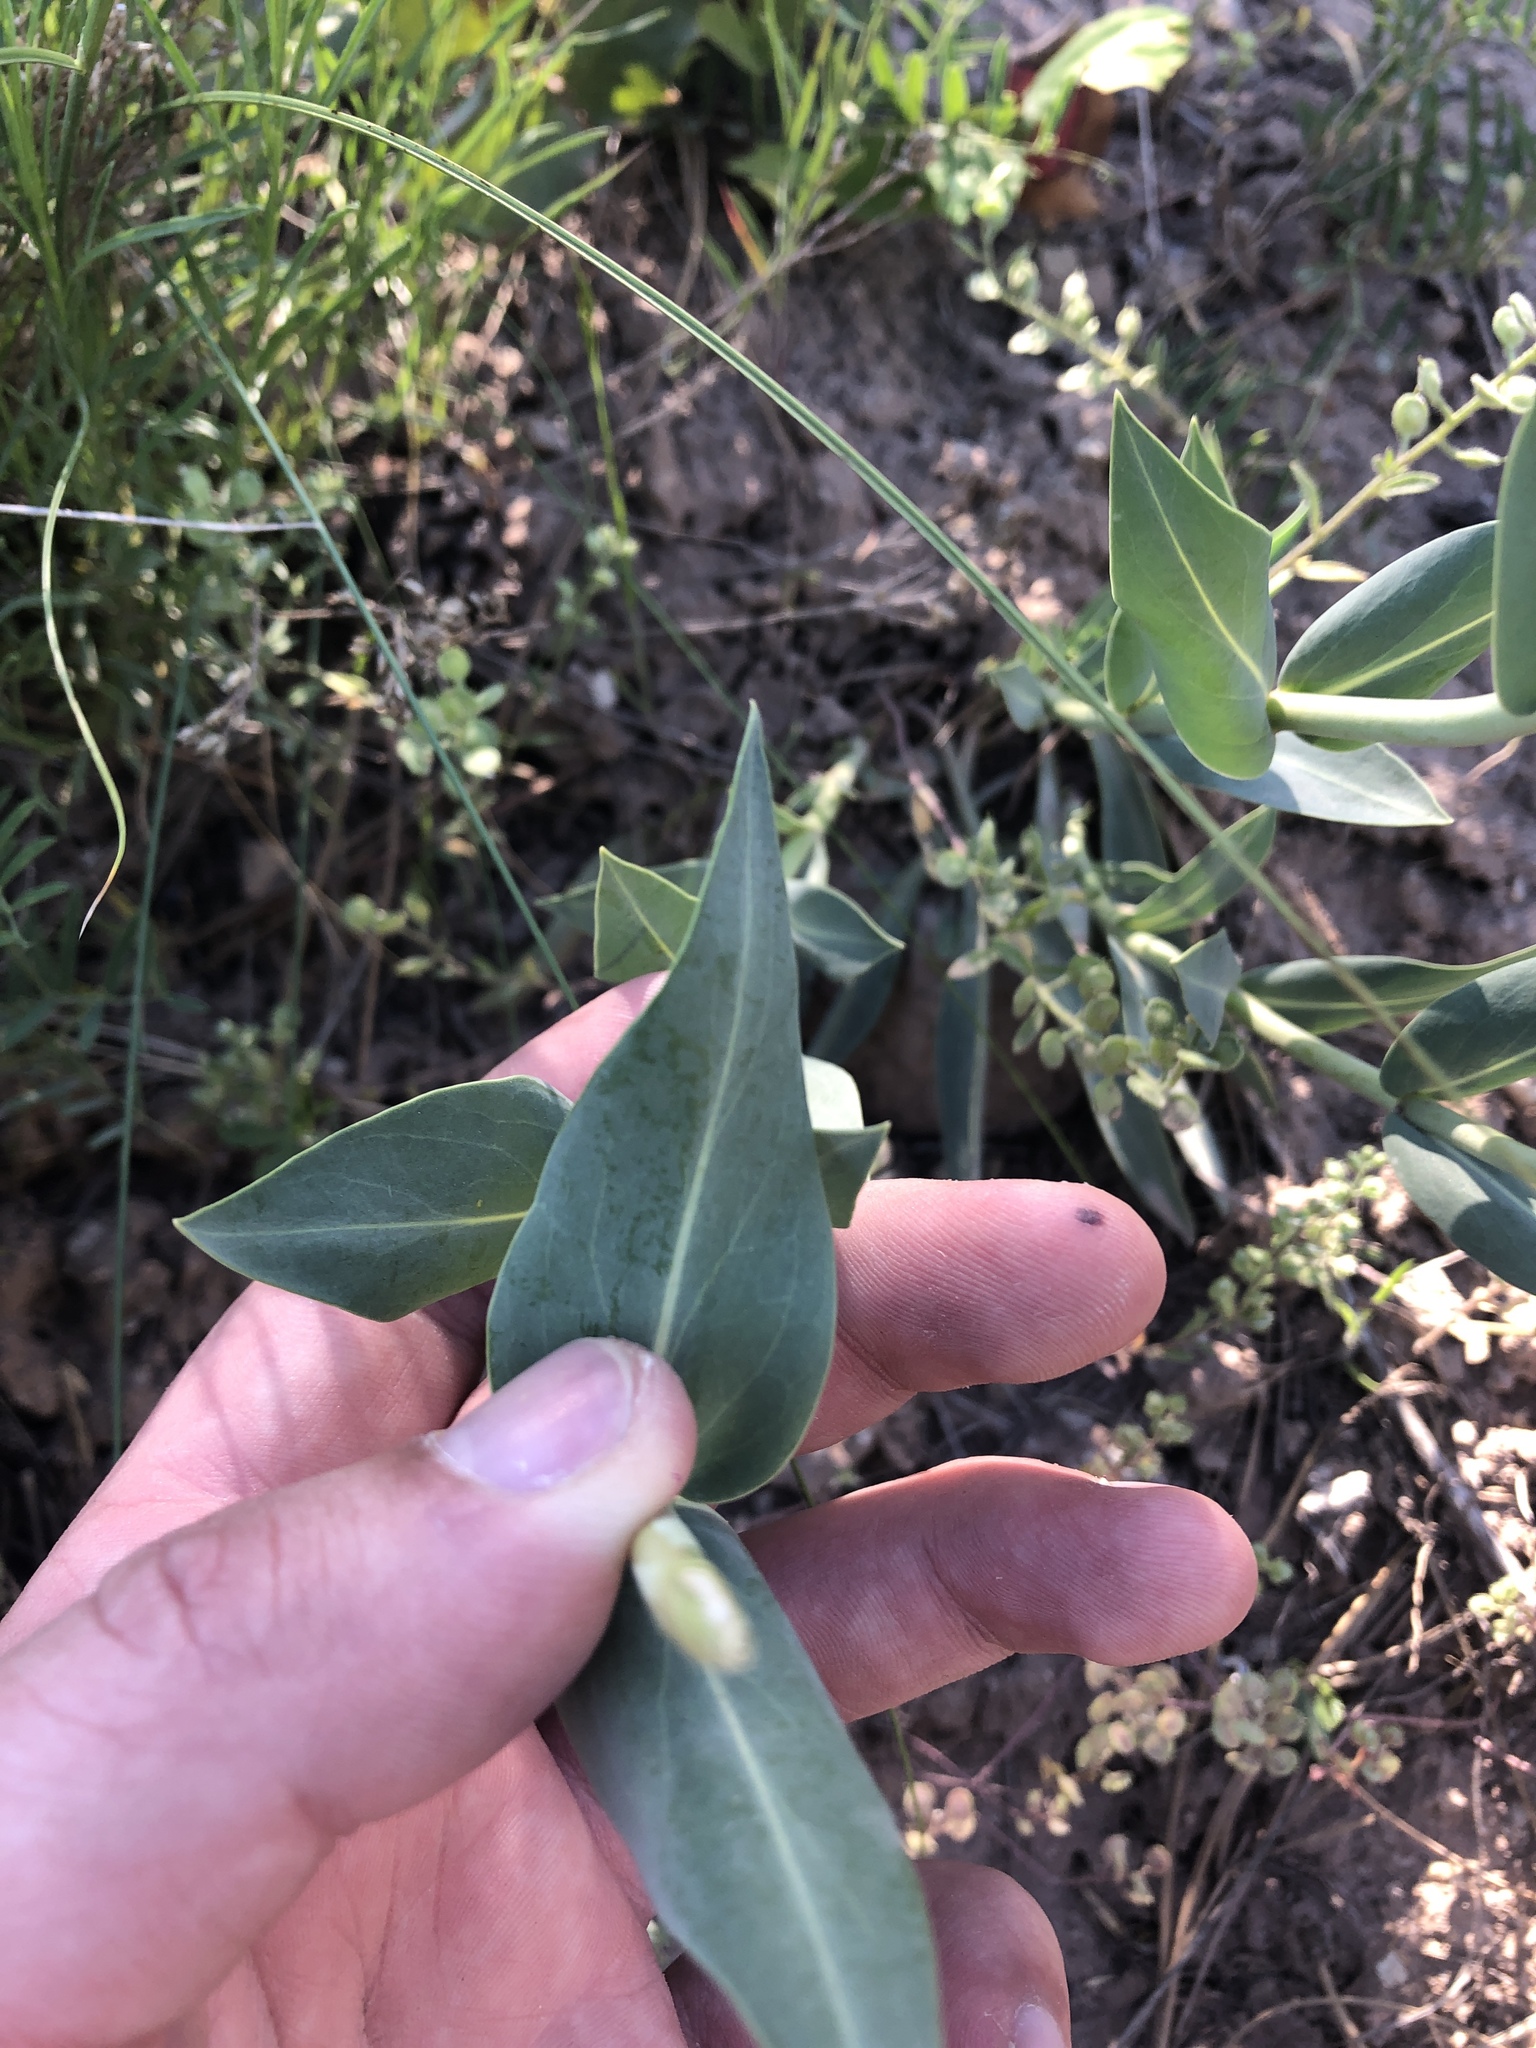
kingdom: Plantae
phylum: Tracheophyta
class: Magnoliopsida
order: Lamiales
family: Plantaginaceae
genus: Penstemon
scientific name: Penstemon secundiflorus
